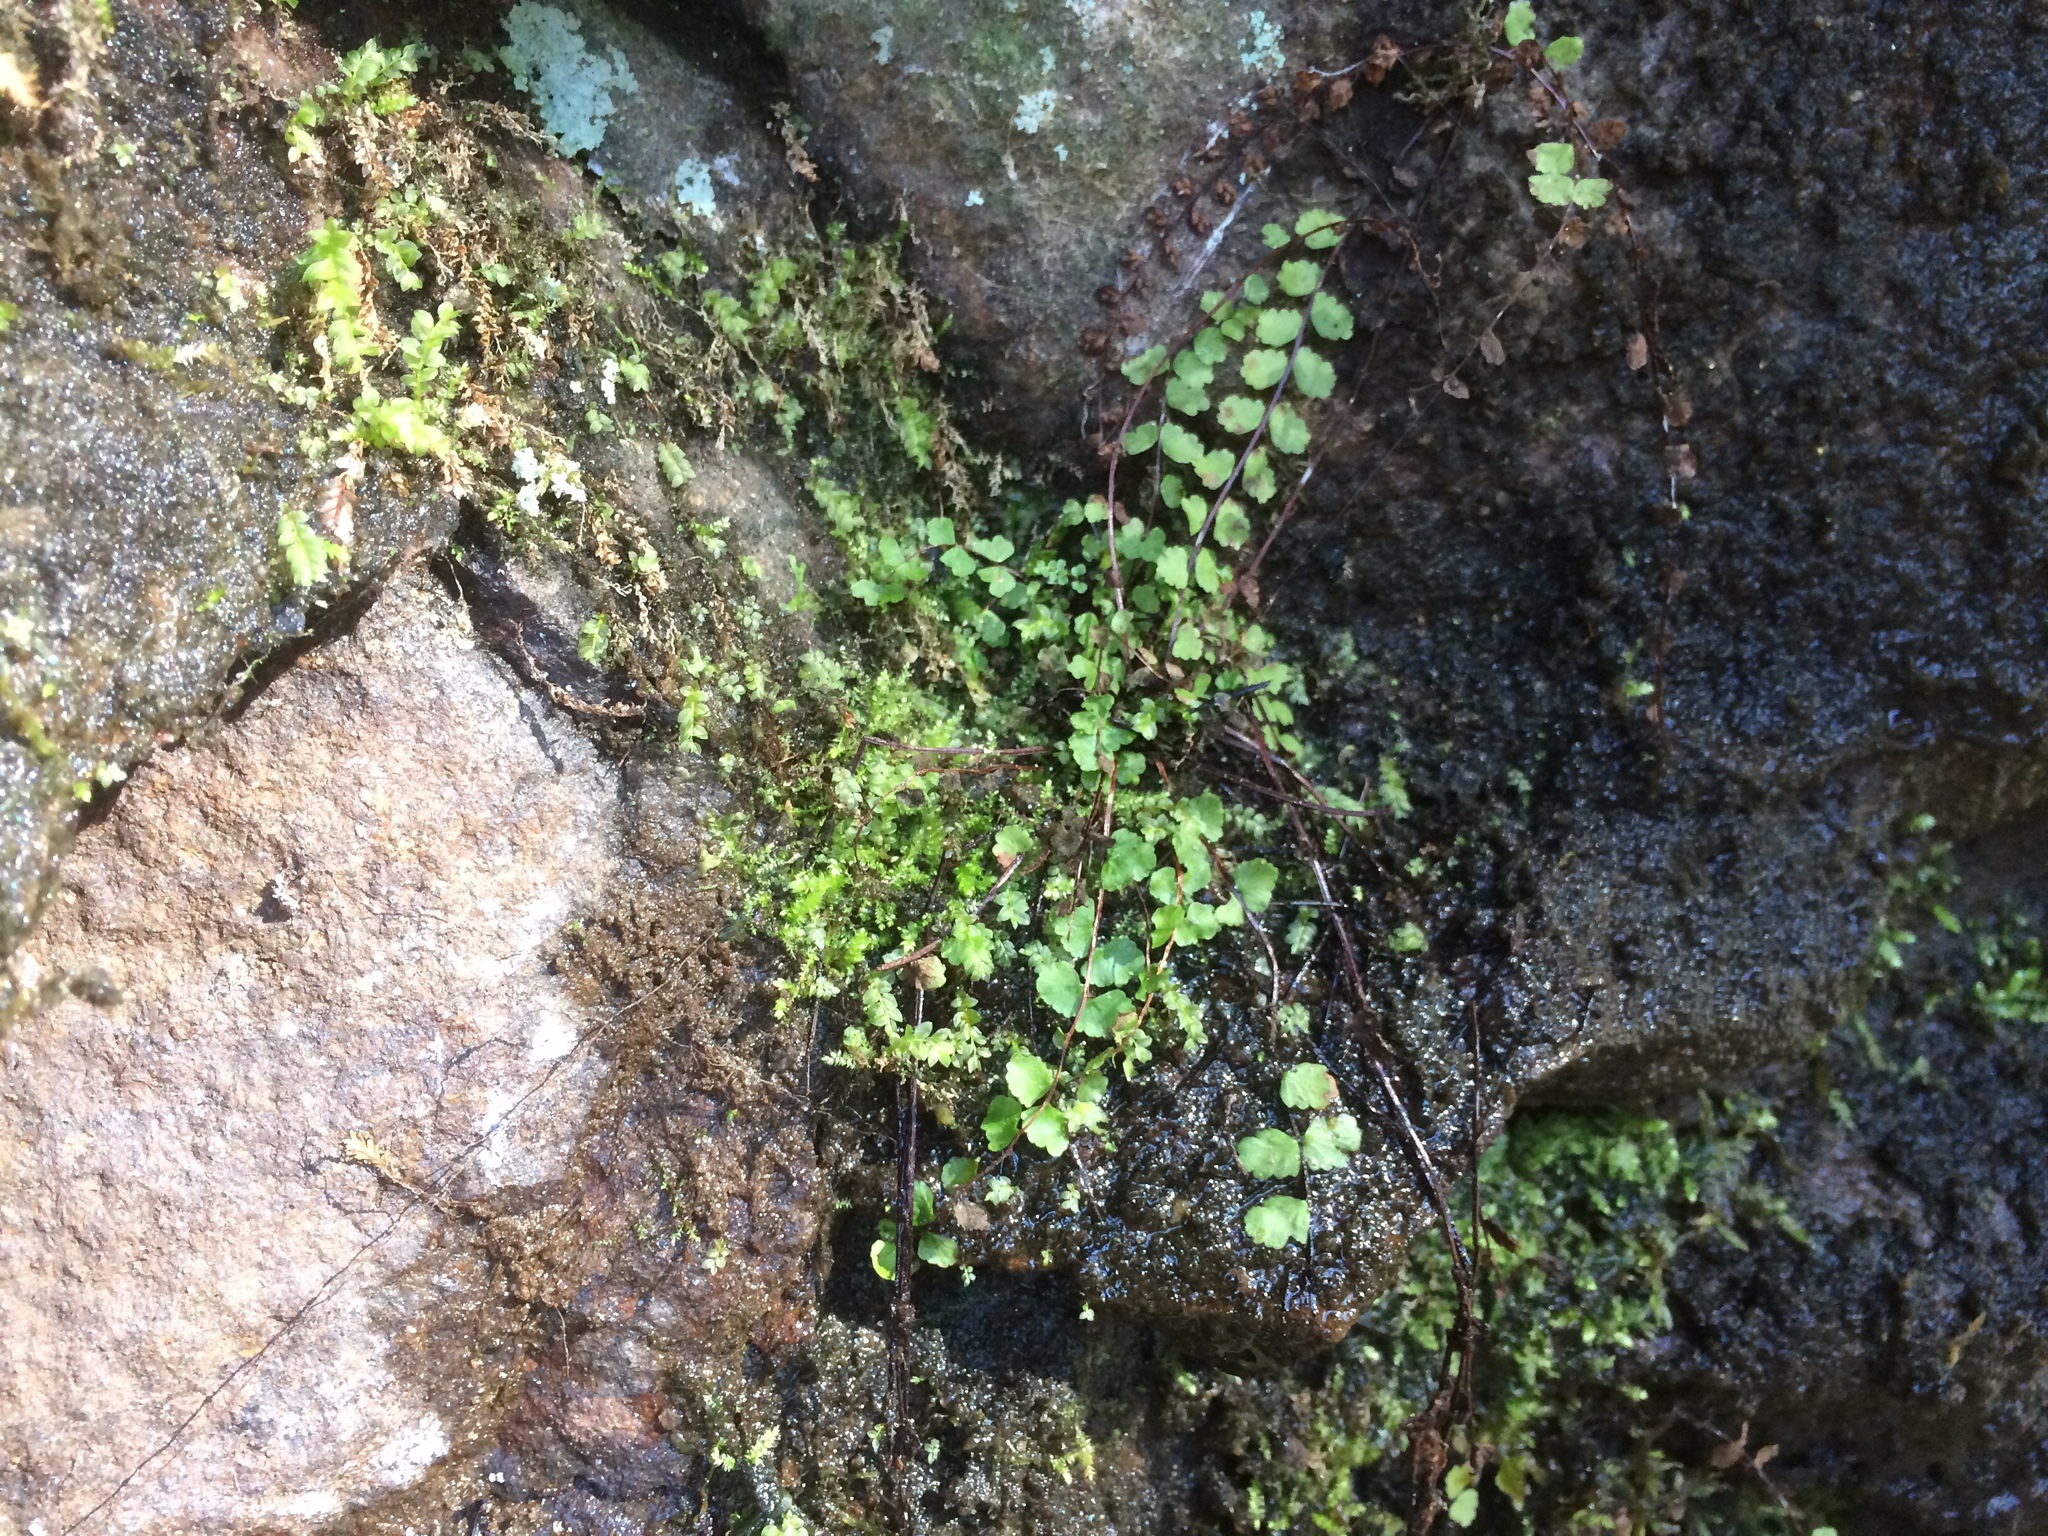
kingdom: Plantae
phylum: Tracheophyta
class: Polypodiopsida
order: Polypodiales
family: Aspleniaceae
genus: Asplenium
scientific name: Asplenium trichomanes
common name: Maidenhair spleenwort
